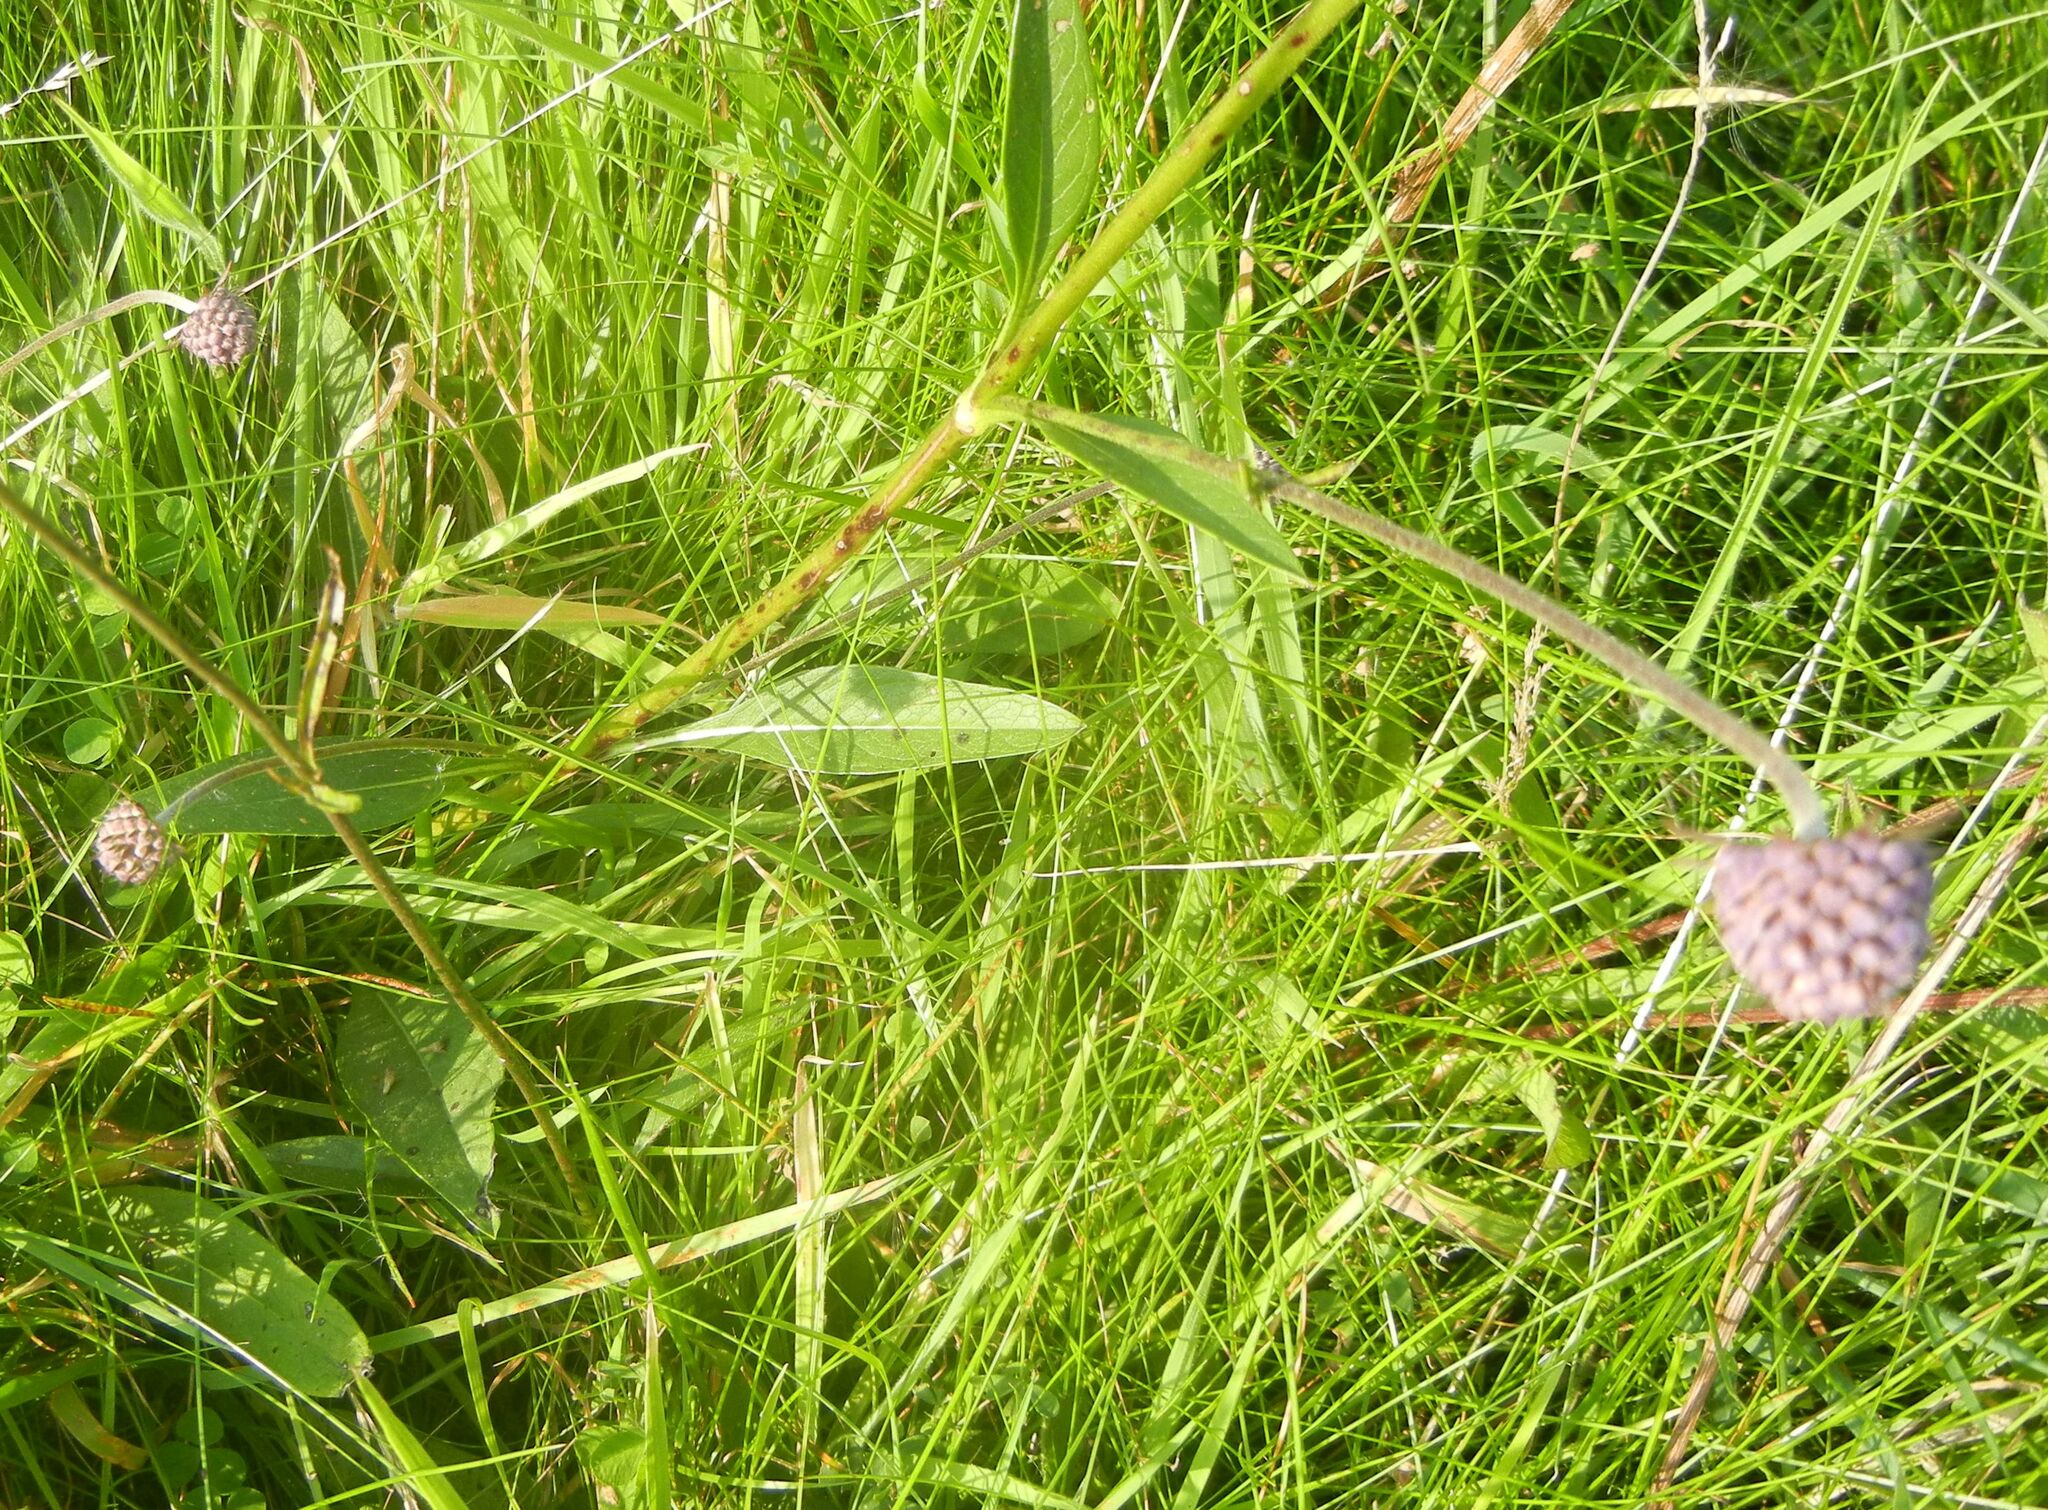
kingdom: Plantae
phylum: Tracheophyta
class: Magnoliopsida
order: Dipsacales
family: Caprifoliaceae
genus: Succisa
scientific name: Succisa pratensis
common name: Devil's-bit
